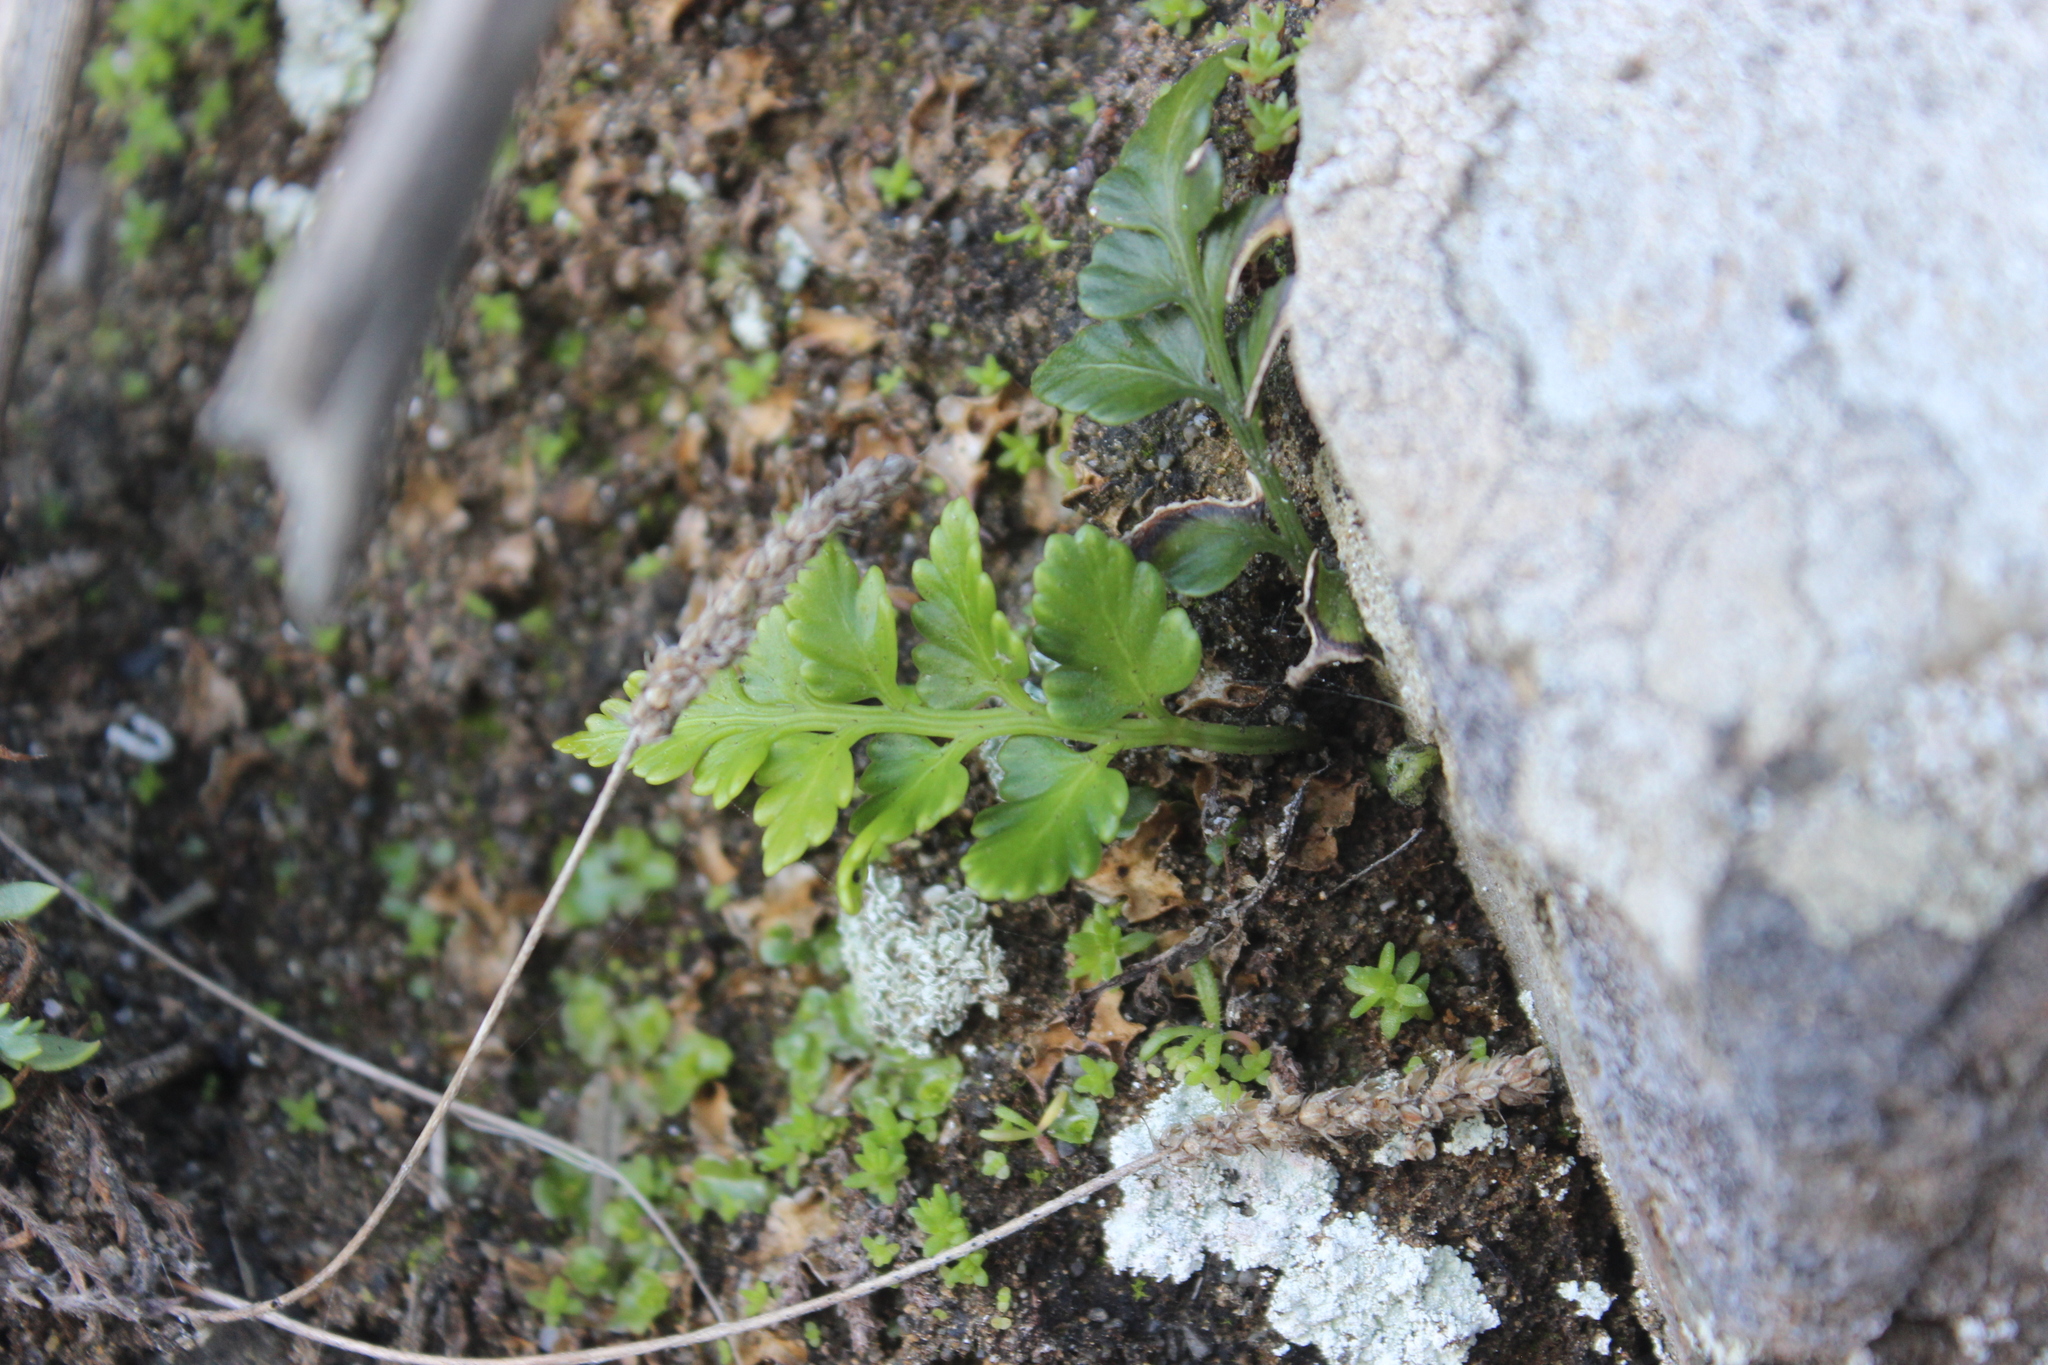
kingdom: Plantae
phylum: Tracheophyta
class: Polypodiopsida
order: Polypodiales
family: Aspleniaceae
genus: Asplenium
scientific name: Asplenium appendiculatum
